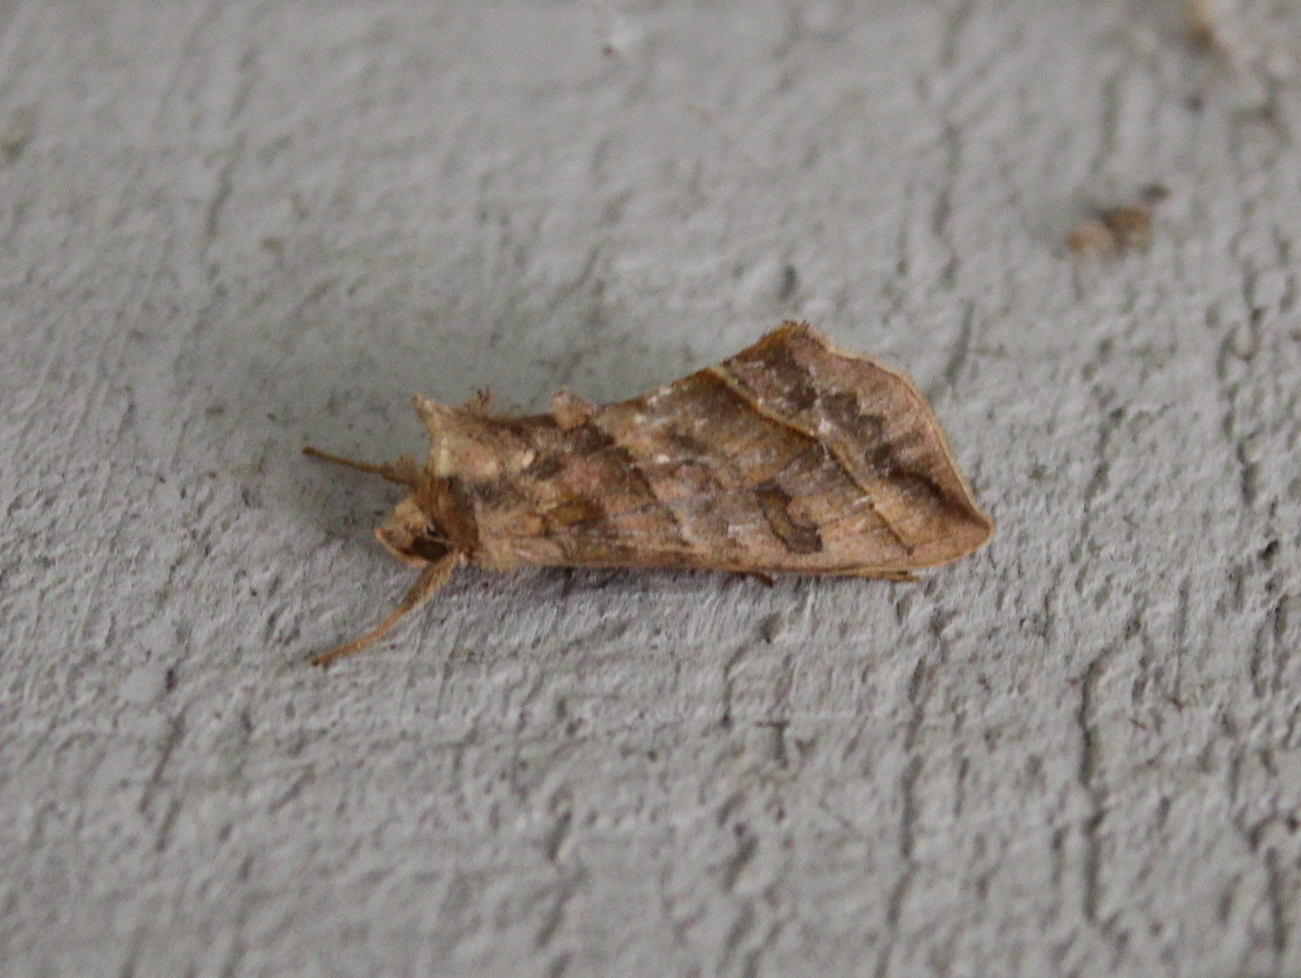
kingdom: Animalia
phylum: Arthropoda
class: Insecta
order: Lepidoptera
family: Noctuidae
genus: Diachrysia
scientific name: Diachrysia aereoides
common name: Dark-spotted looper moth
